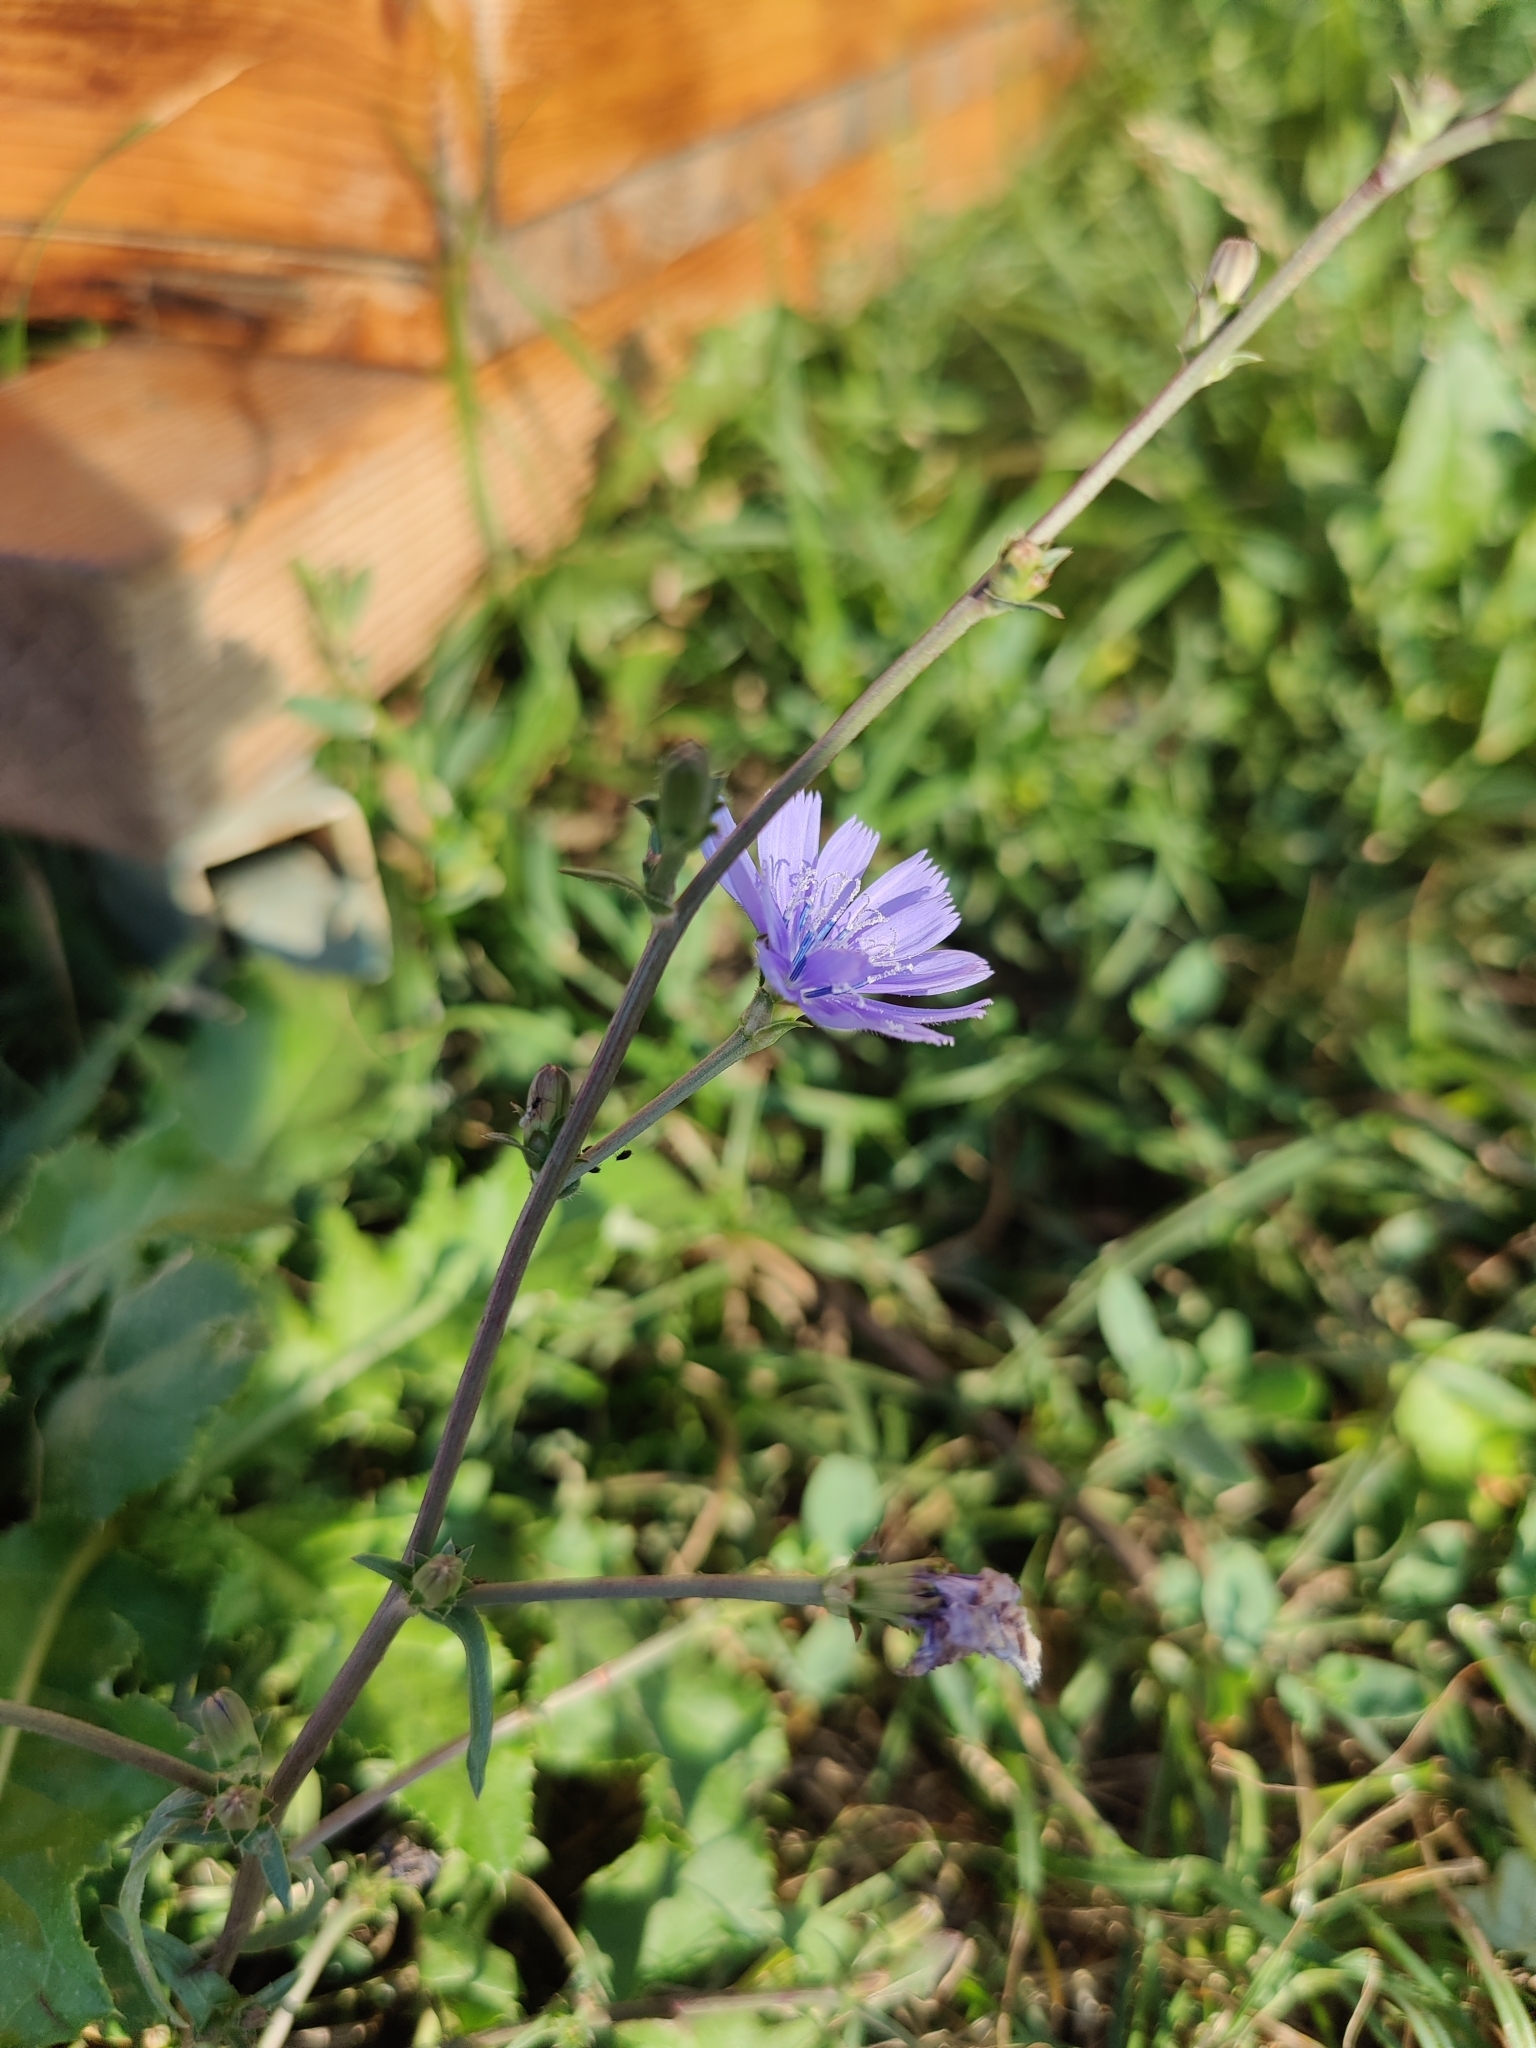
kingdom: Plantae
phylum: Tracheophyta
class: Magnoliopsida
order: Asterales
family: Asteraceae
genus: Cichorium
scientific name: Cichorium intybus
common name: Chicory
